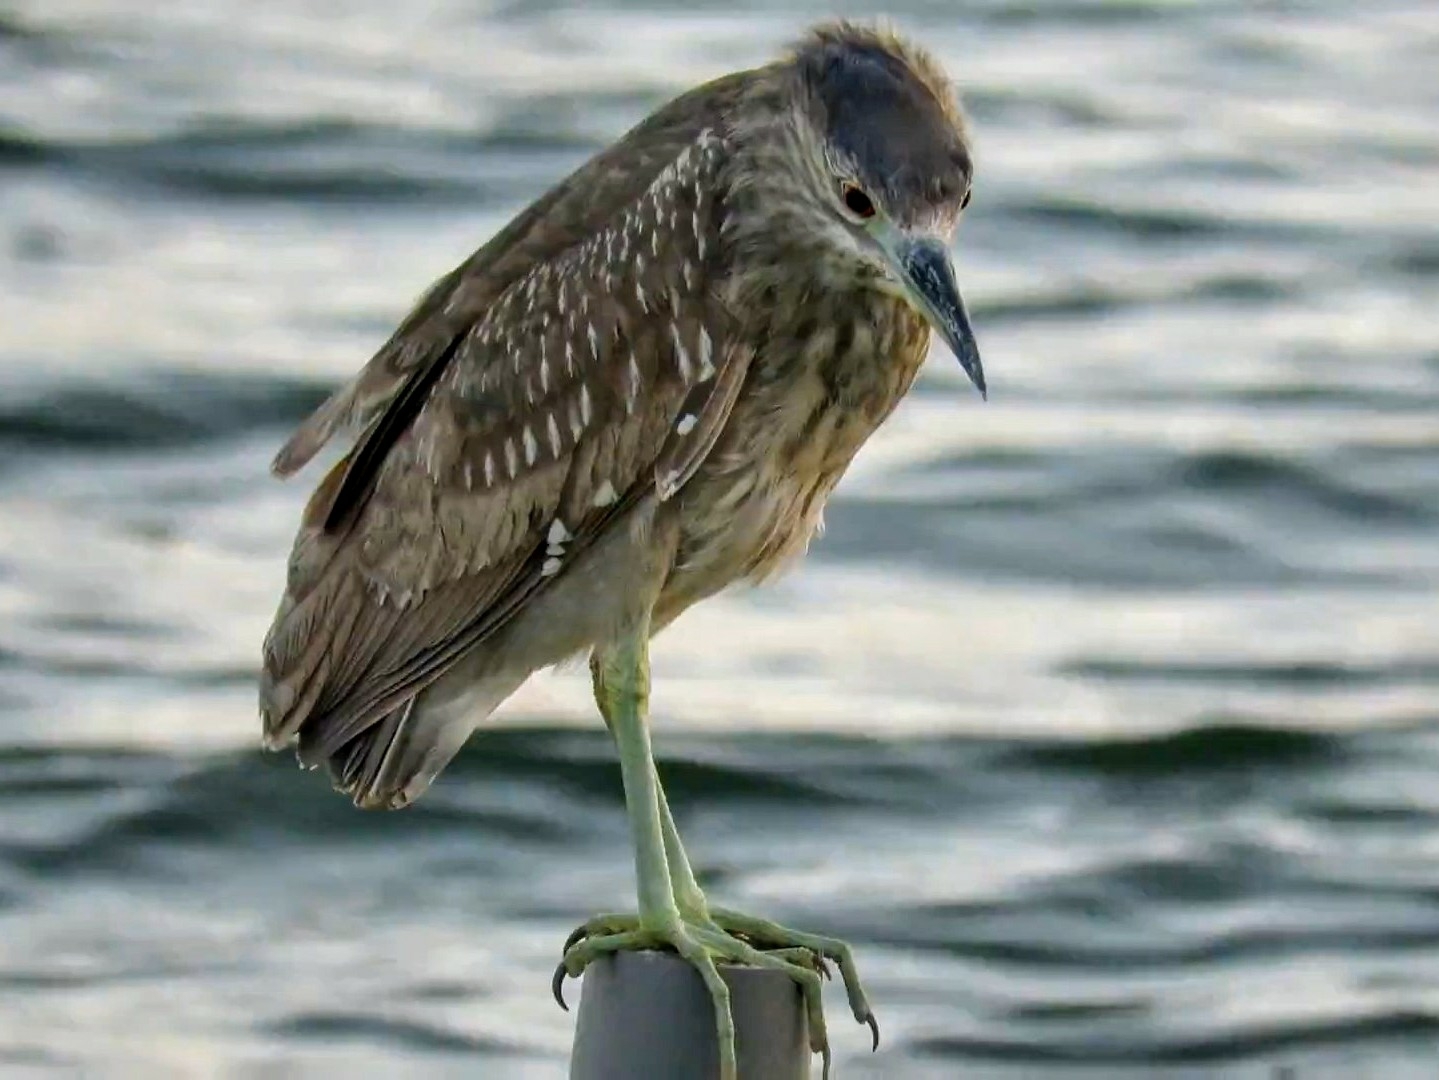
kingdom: Animalia
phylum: Chordata
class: Aves
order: Pelecaniformes
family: Ardeidae
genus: Nycticorax
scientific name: Nycticorax nycticorax
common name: Black-crowned night heron
